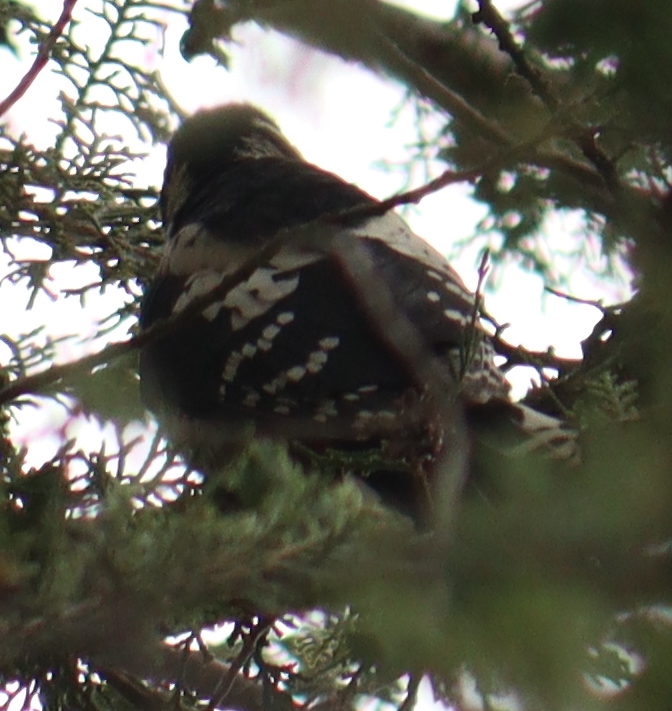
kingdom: Animalia
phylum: Chordata
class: Aves
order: Piciformes
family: Picidae
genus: Dendrocopos
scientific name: Dendrocopos major
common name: Great spotted woodpecker
